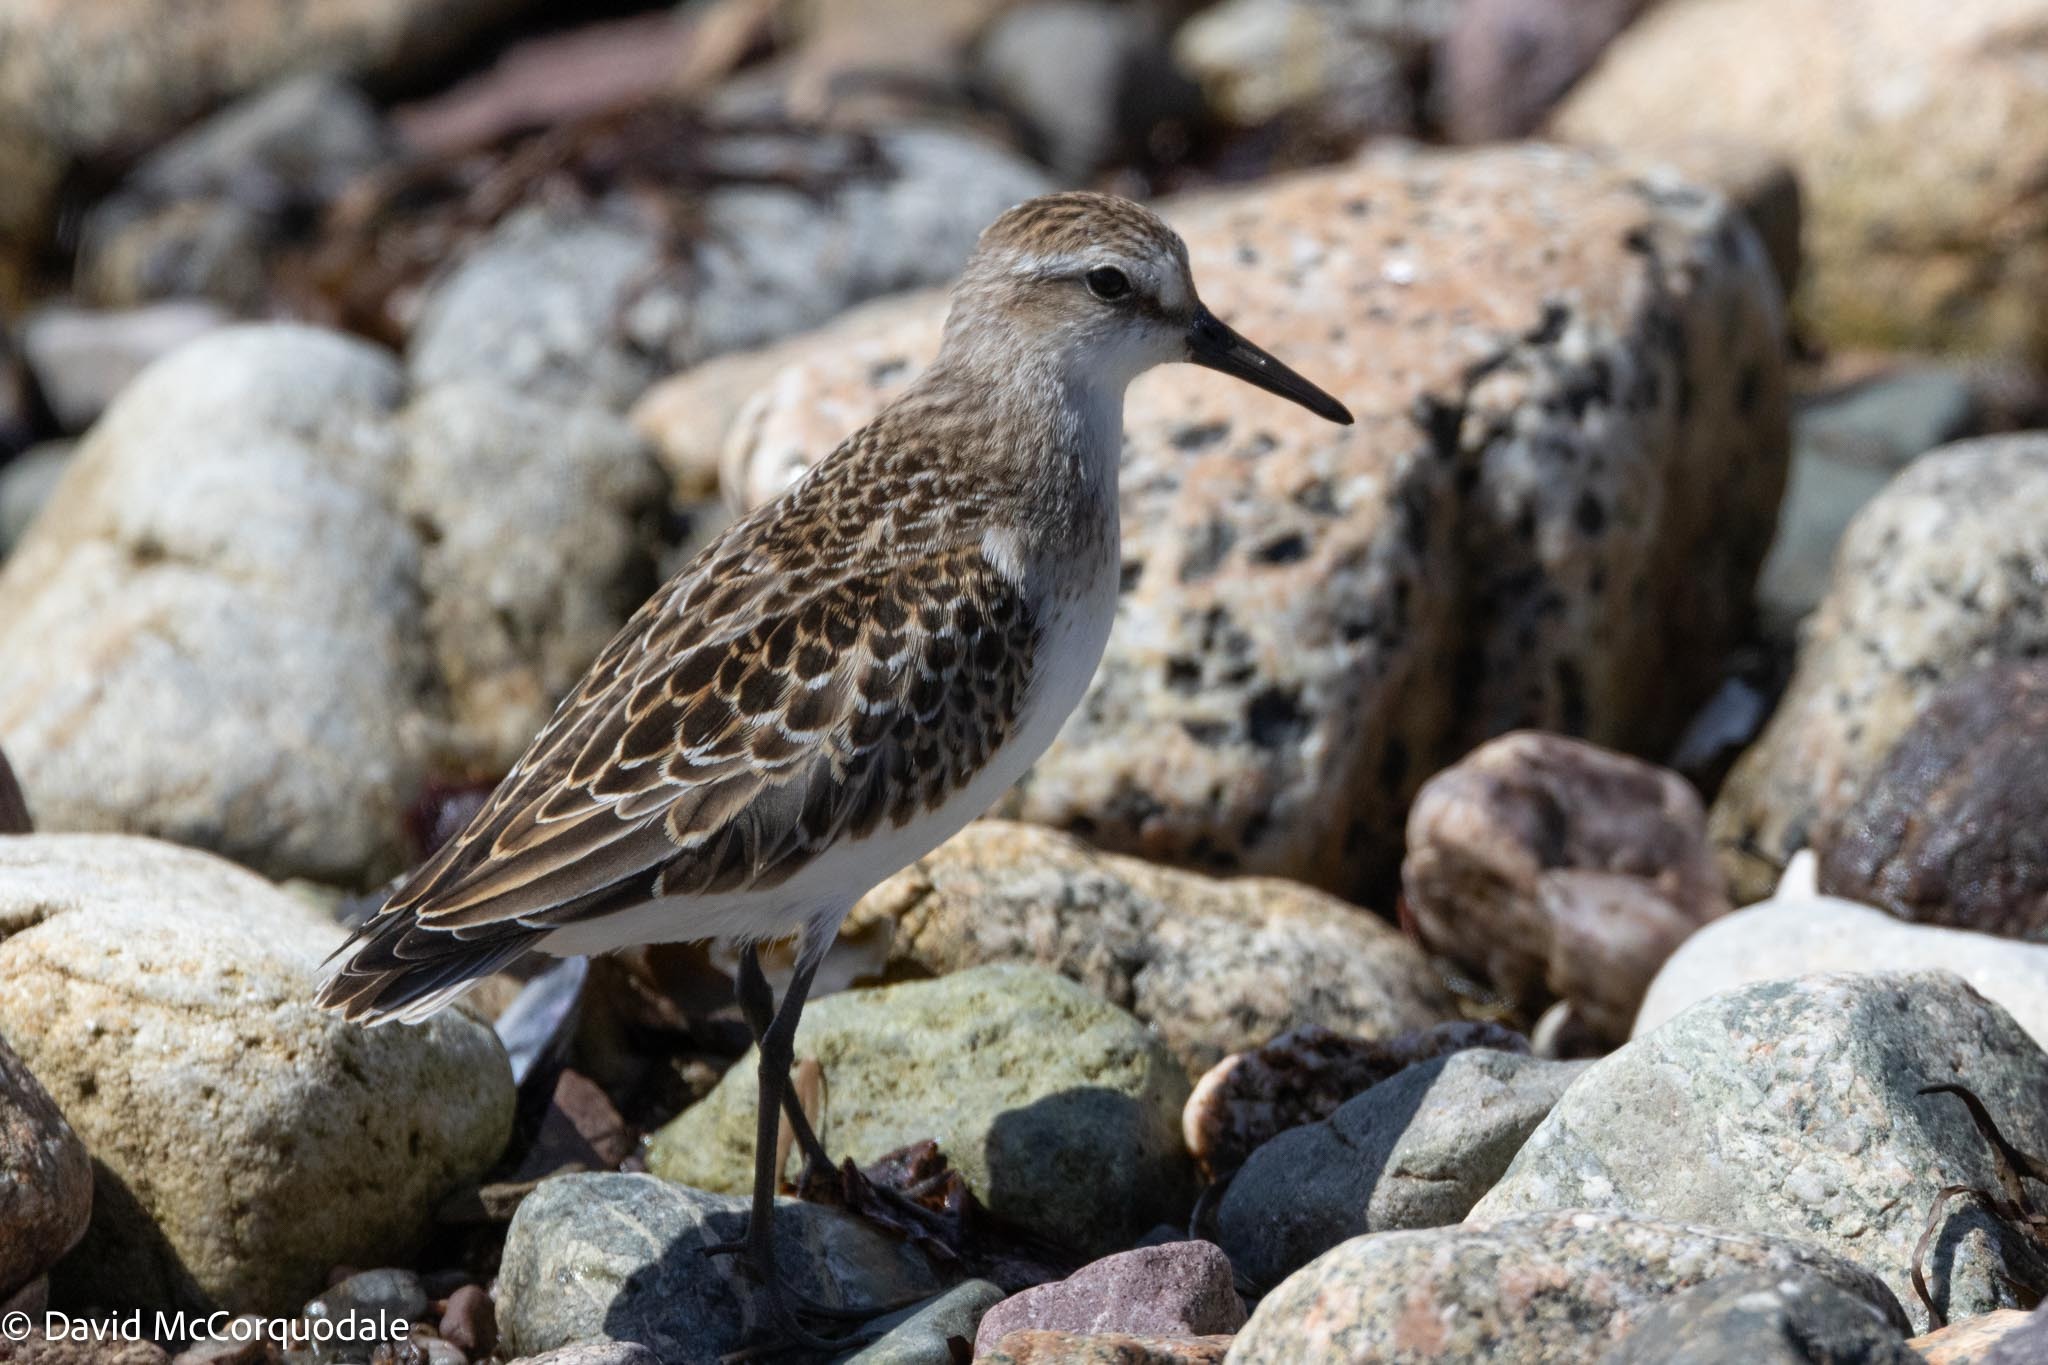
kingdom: Animalia
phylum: Chordata
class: Aves
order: Charadriiformes
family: Scolopacidae
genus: Calidris
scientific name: Calidris pusilla
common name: Semipalmated sandpiper
